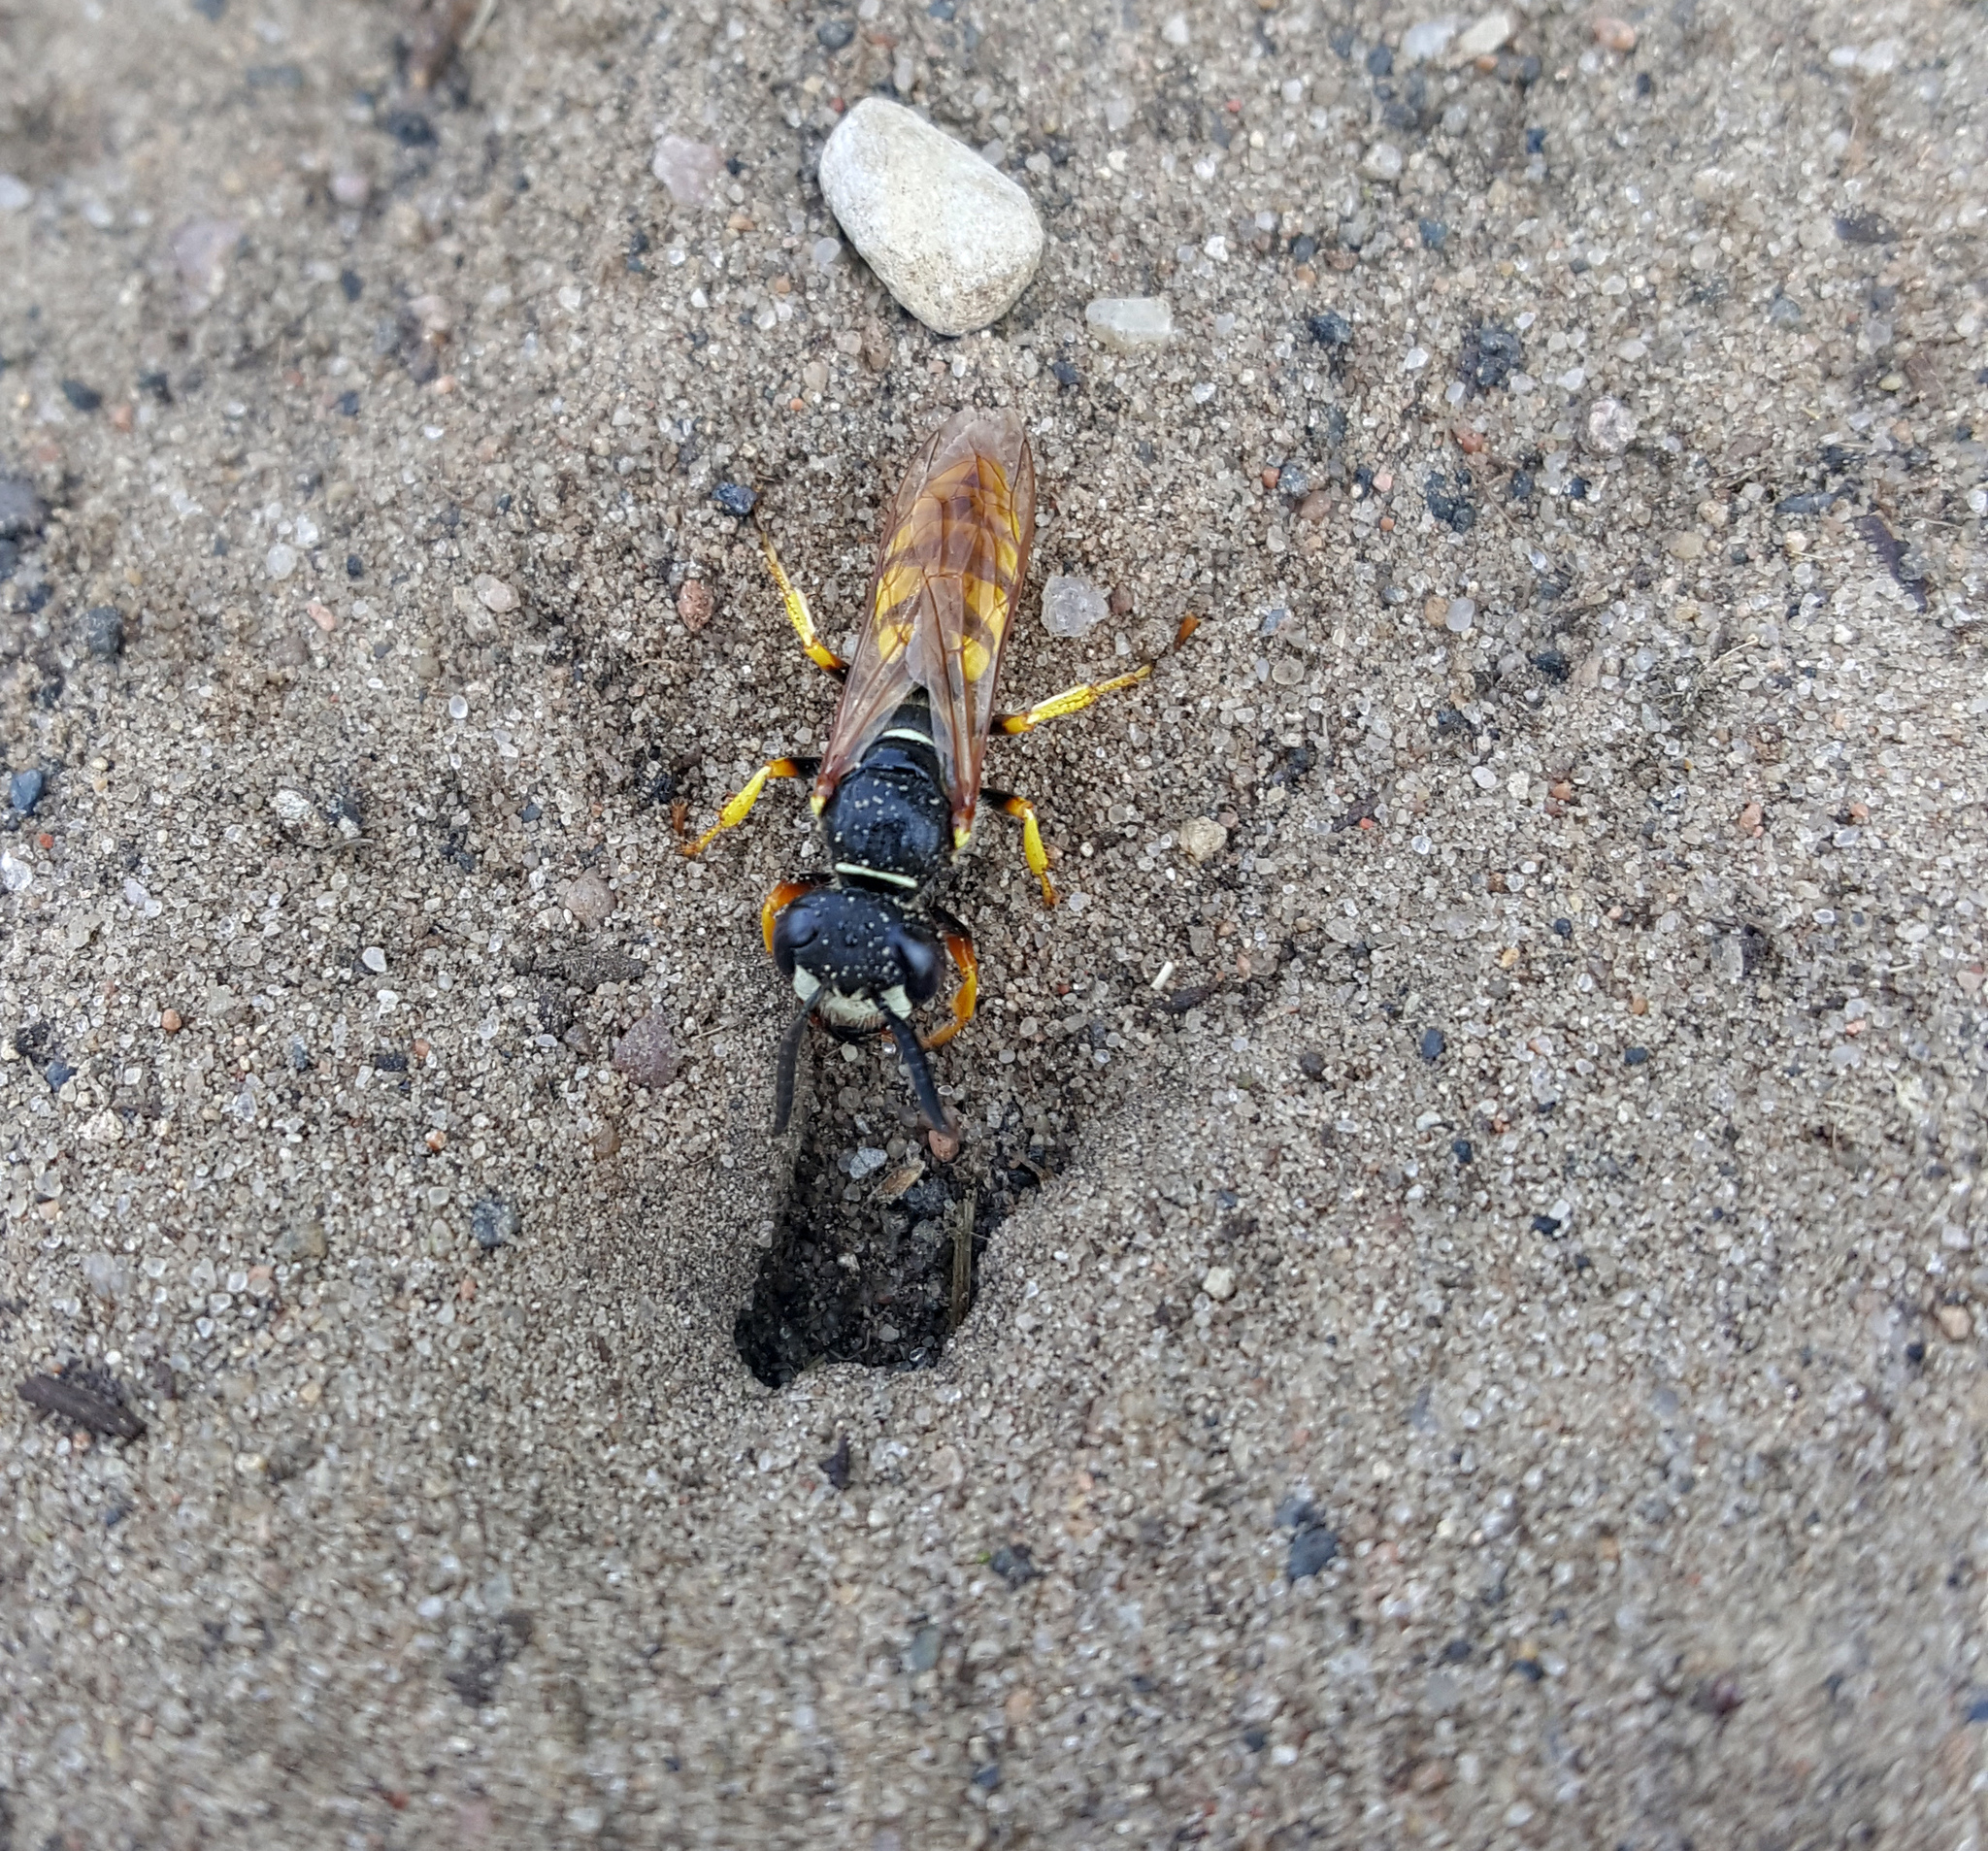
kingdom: Animalia
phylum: Arthropoda
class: Insecta
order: Hymenoptera
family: Crabronidae
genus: Philanthus
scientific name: Philanthus triangulum
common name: Bee wolf
